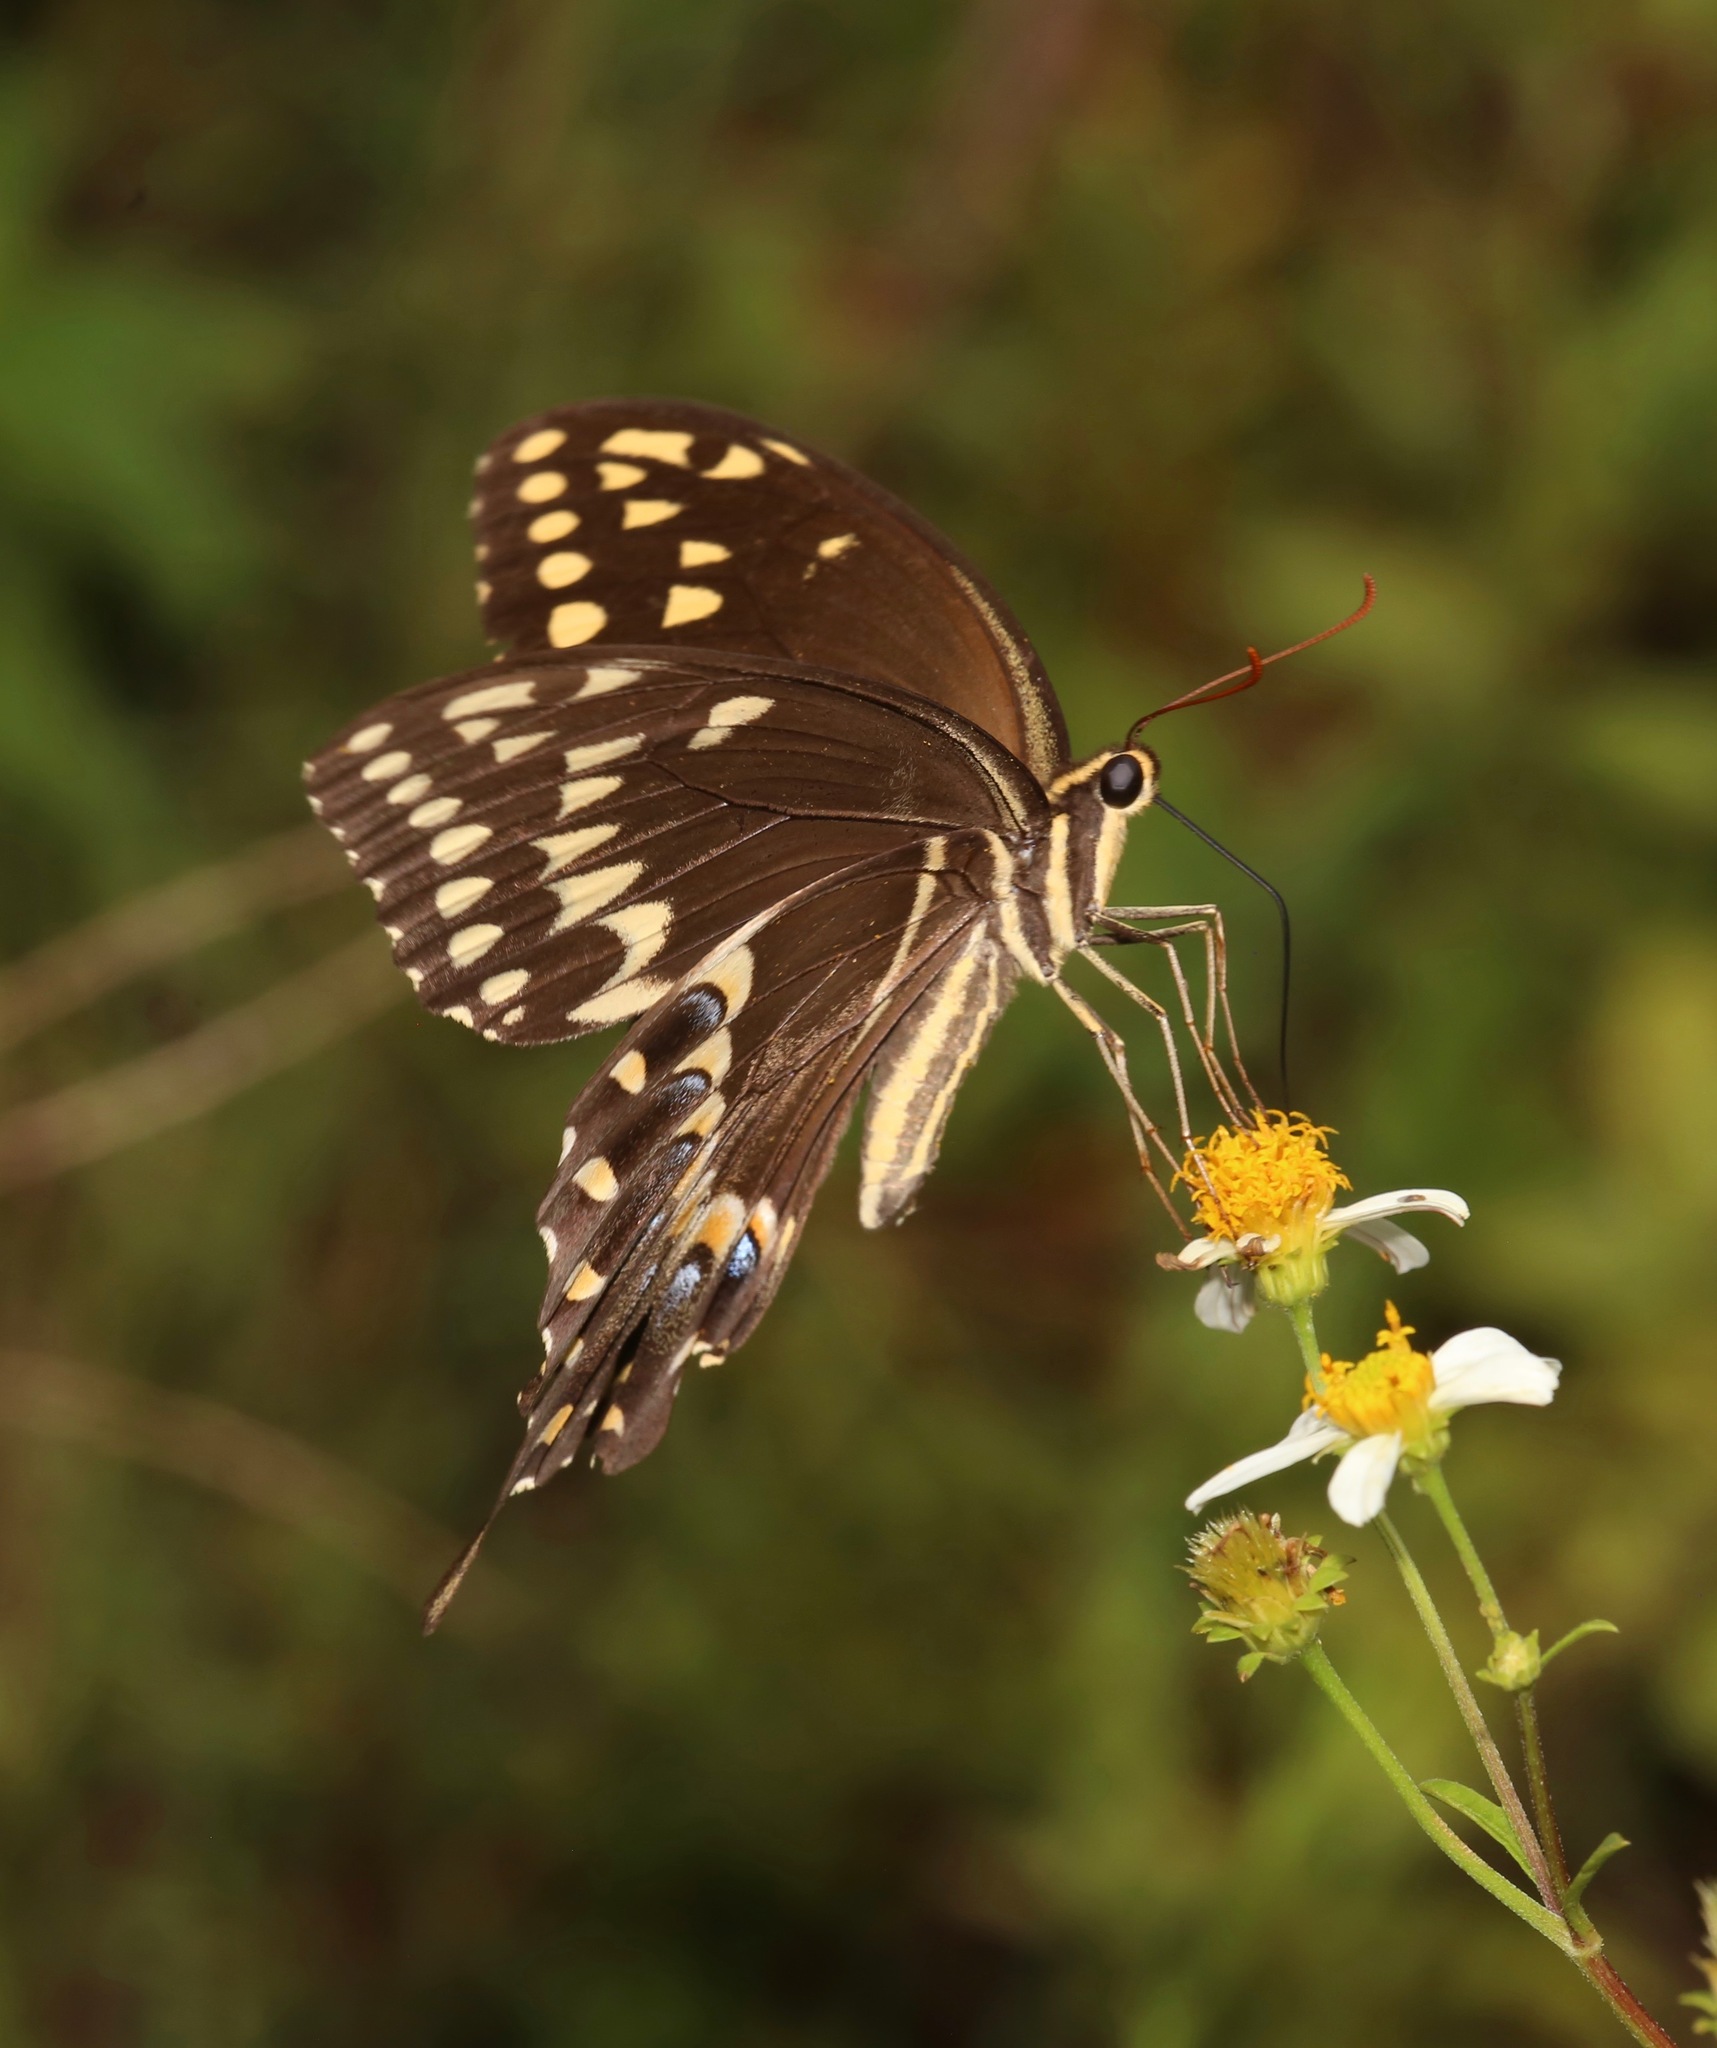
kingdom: Animalia
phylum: Arthropoda
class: Insecta
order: Lepidoptera
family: Papilionidae
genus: Papilio
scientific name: Papilio palamedes
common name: Palamedes swallowtail
